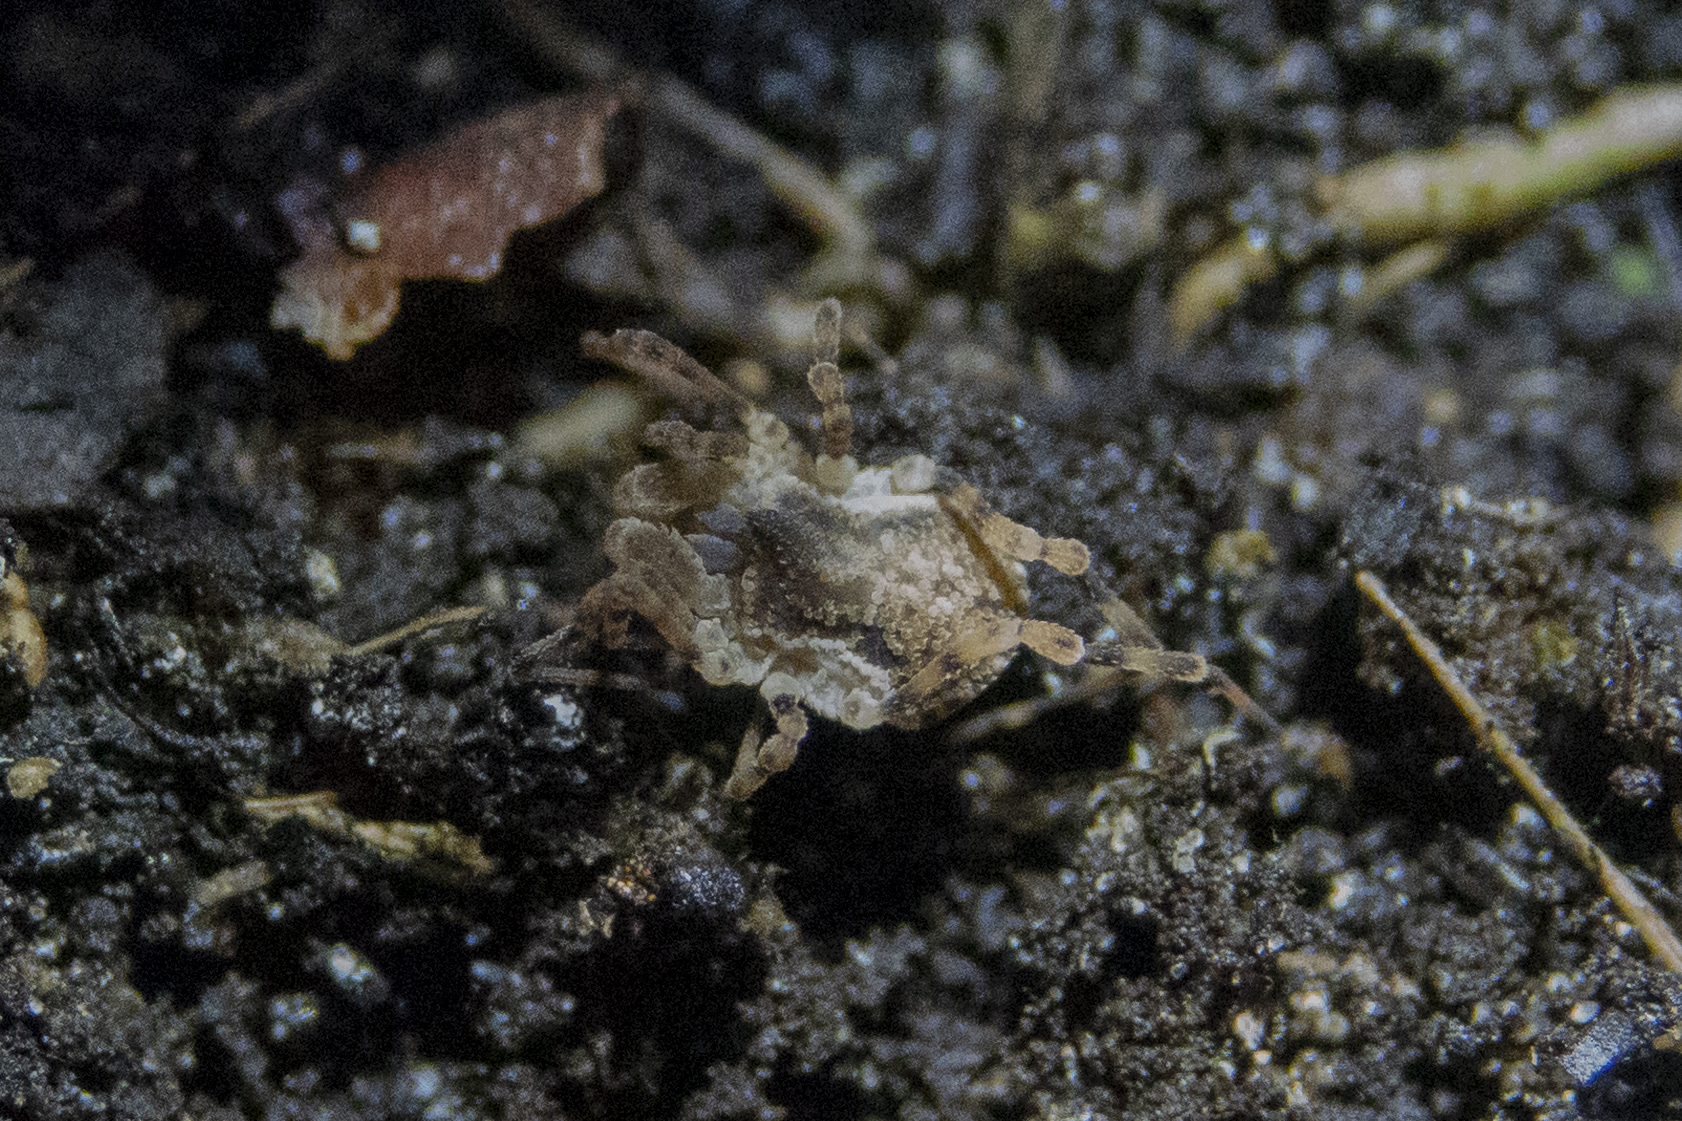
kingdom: Animalia
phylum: Arthropoda
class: Arachnida
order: Opiliones
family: Triaenonychidae
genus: Pristobunus
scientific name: Pristobunus acentrus
